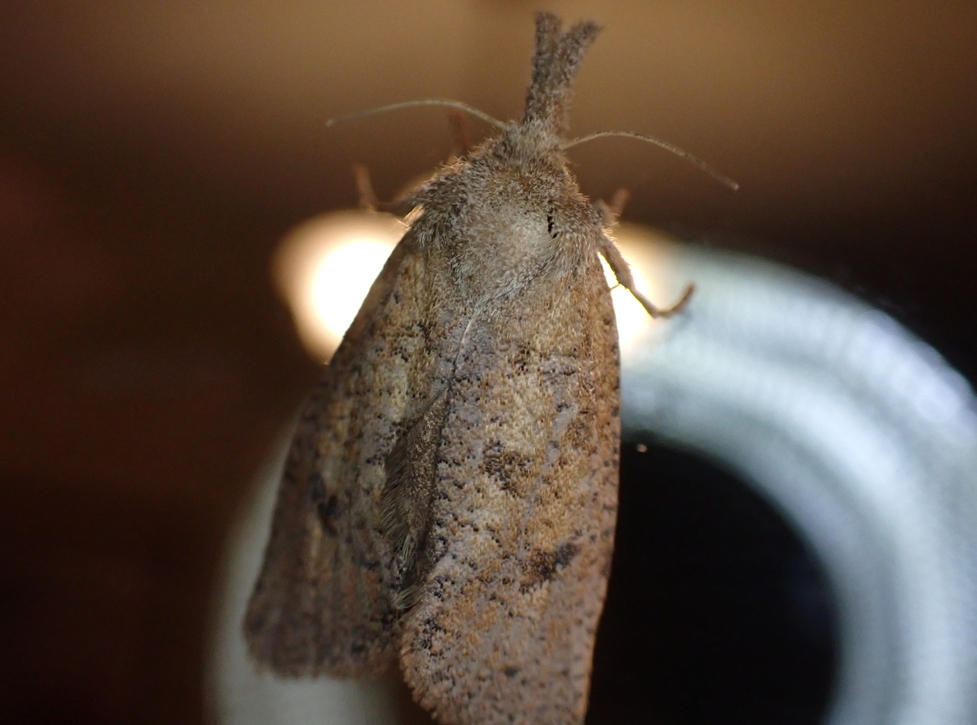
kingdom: Animalia
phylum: Arthropoda
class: Insecta
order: Lepidoptera
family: Tineidae
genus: Acrolophus
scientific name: Acrolophus plumifrontella
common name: Eastern grass tubeworm moth
